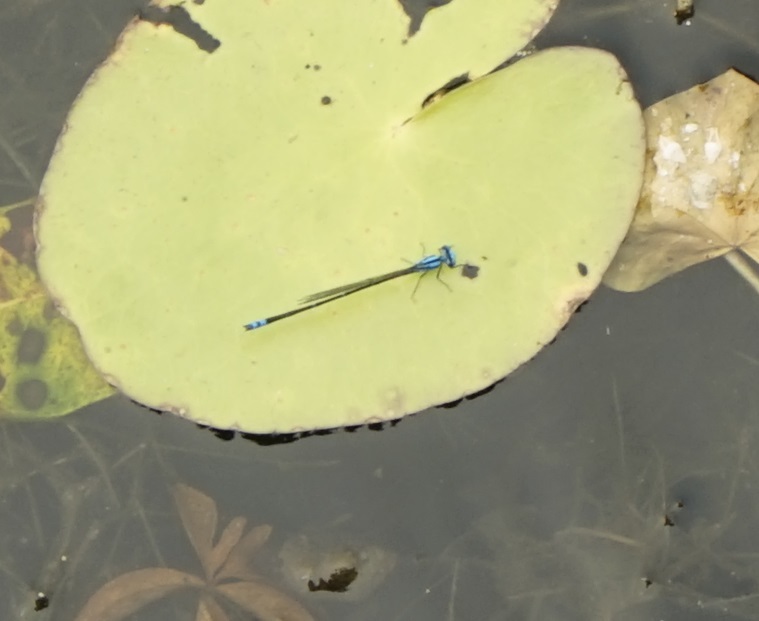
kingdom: Animalia
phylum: Arthropoda
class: Insecta
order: Odonata
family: Coenagrionidae
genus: Pseudagrion
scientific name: Pseudagrion microcephalum
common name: Blue riverdamsel
